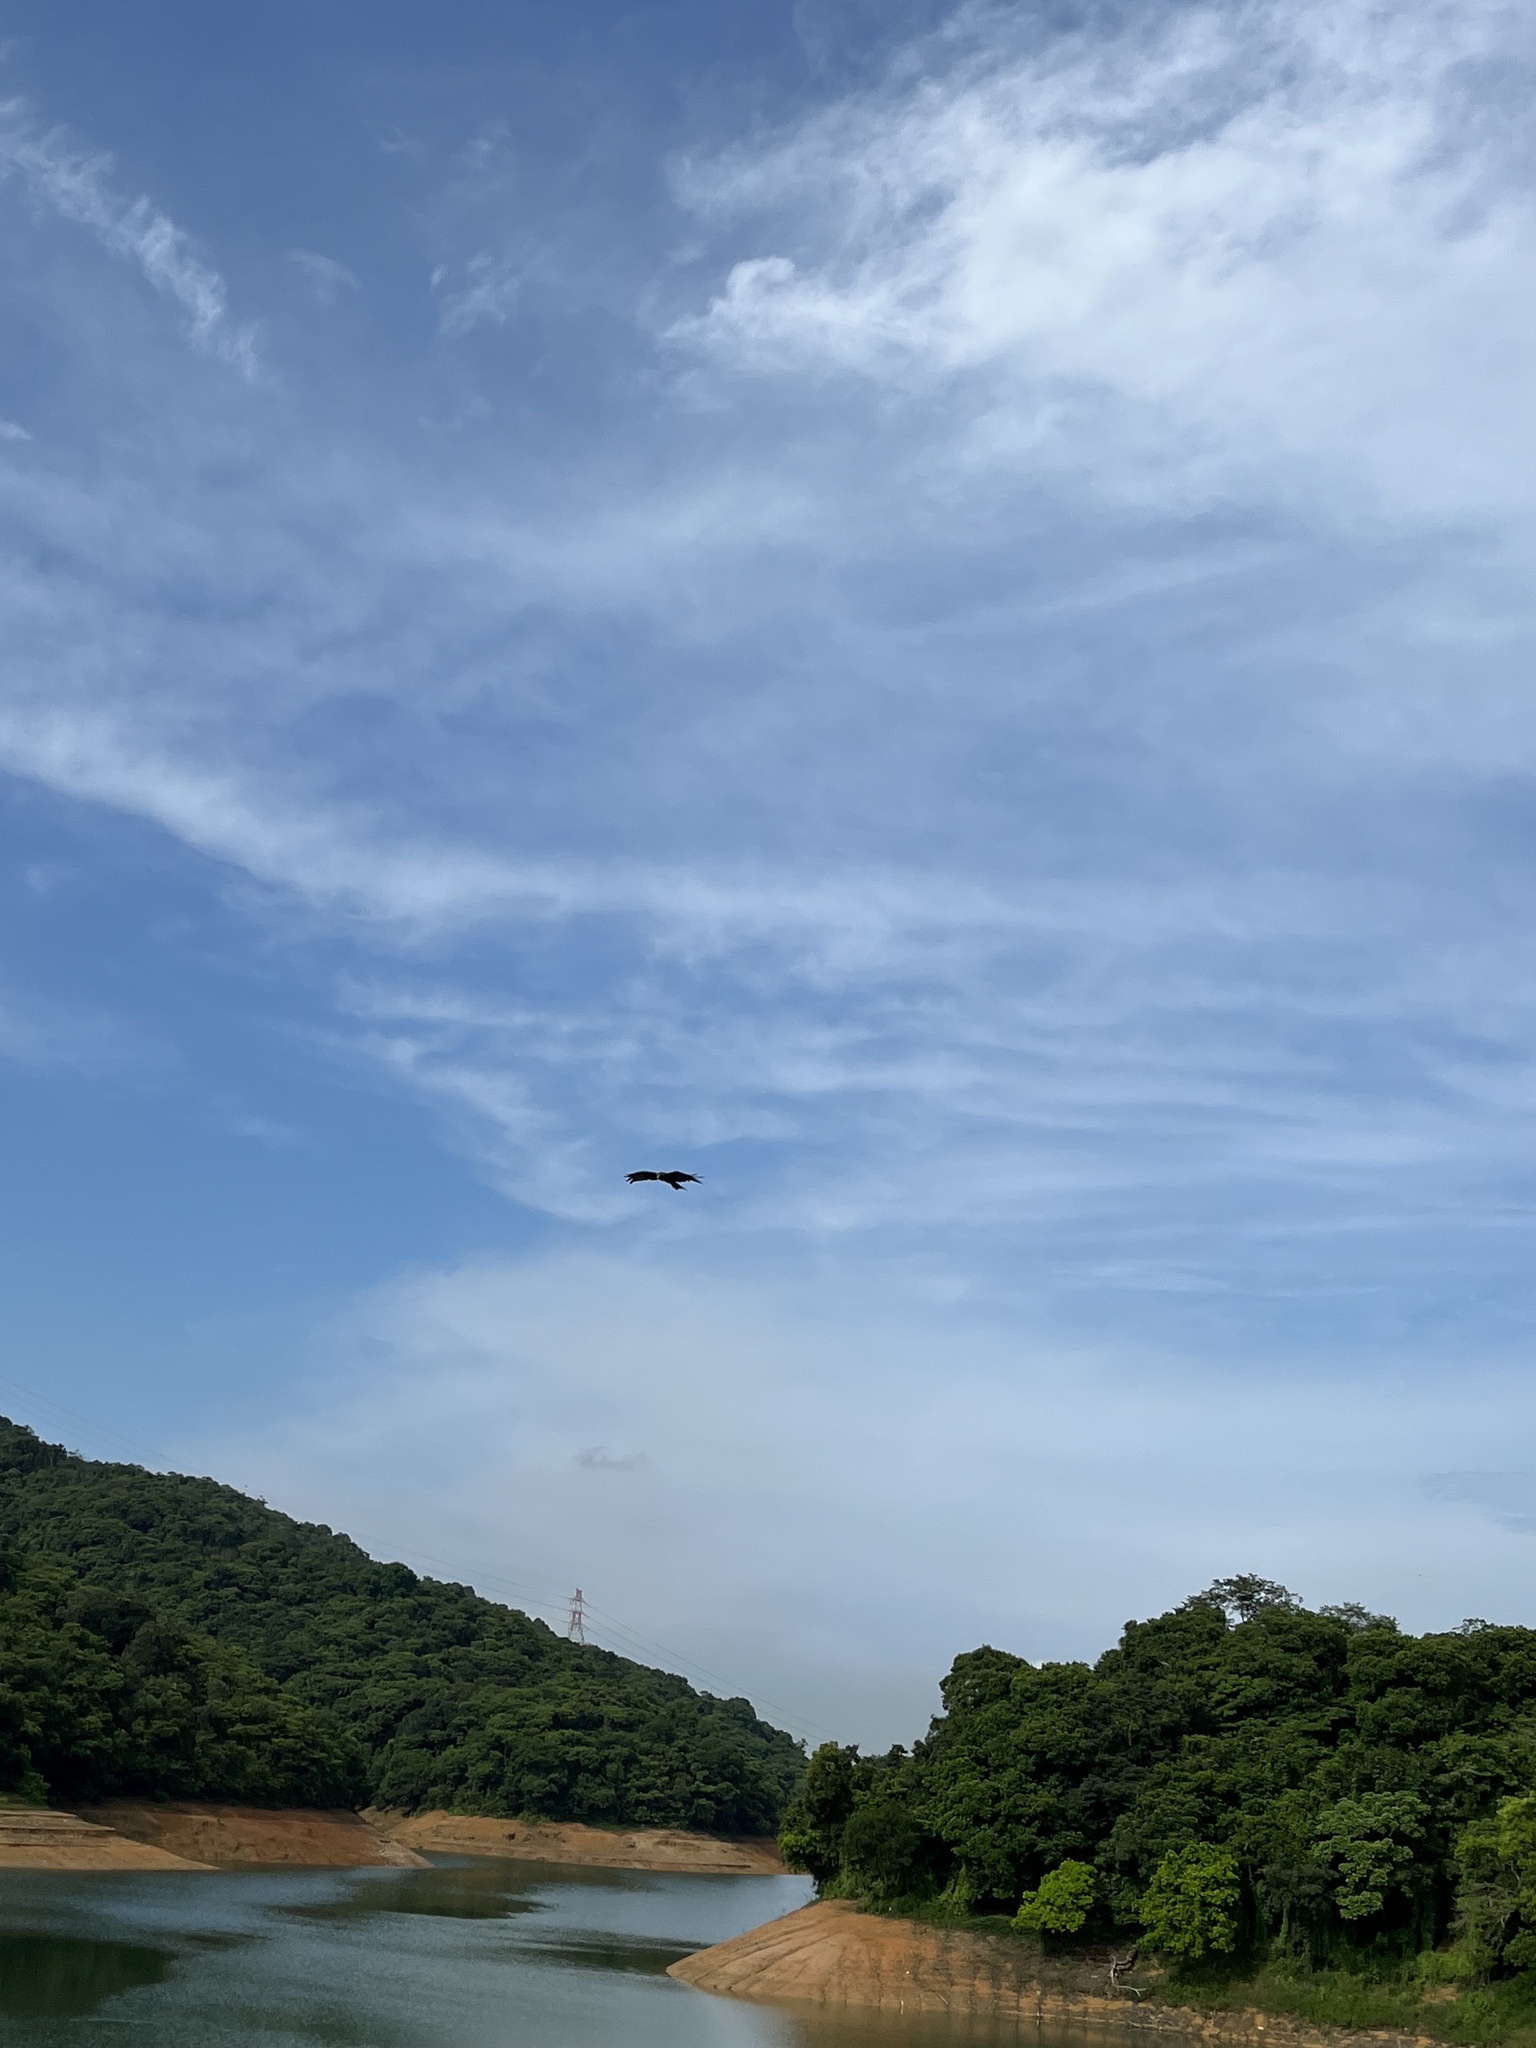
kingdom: Animalia
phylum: Chordata
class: Aves
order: Accipitriformes
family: Accipitridae
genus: Milvus
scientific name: Milvus migrans
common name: Black kite
